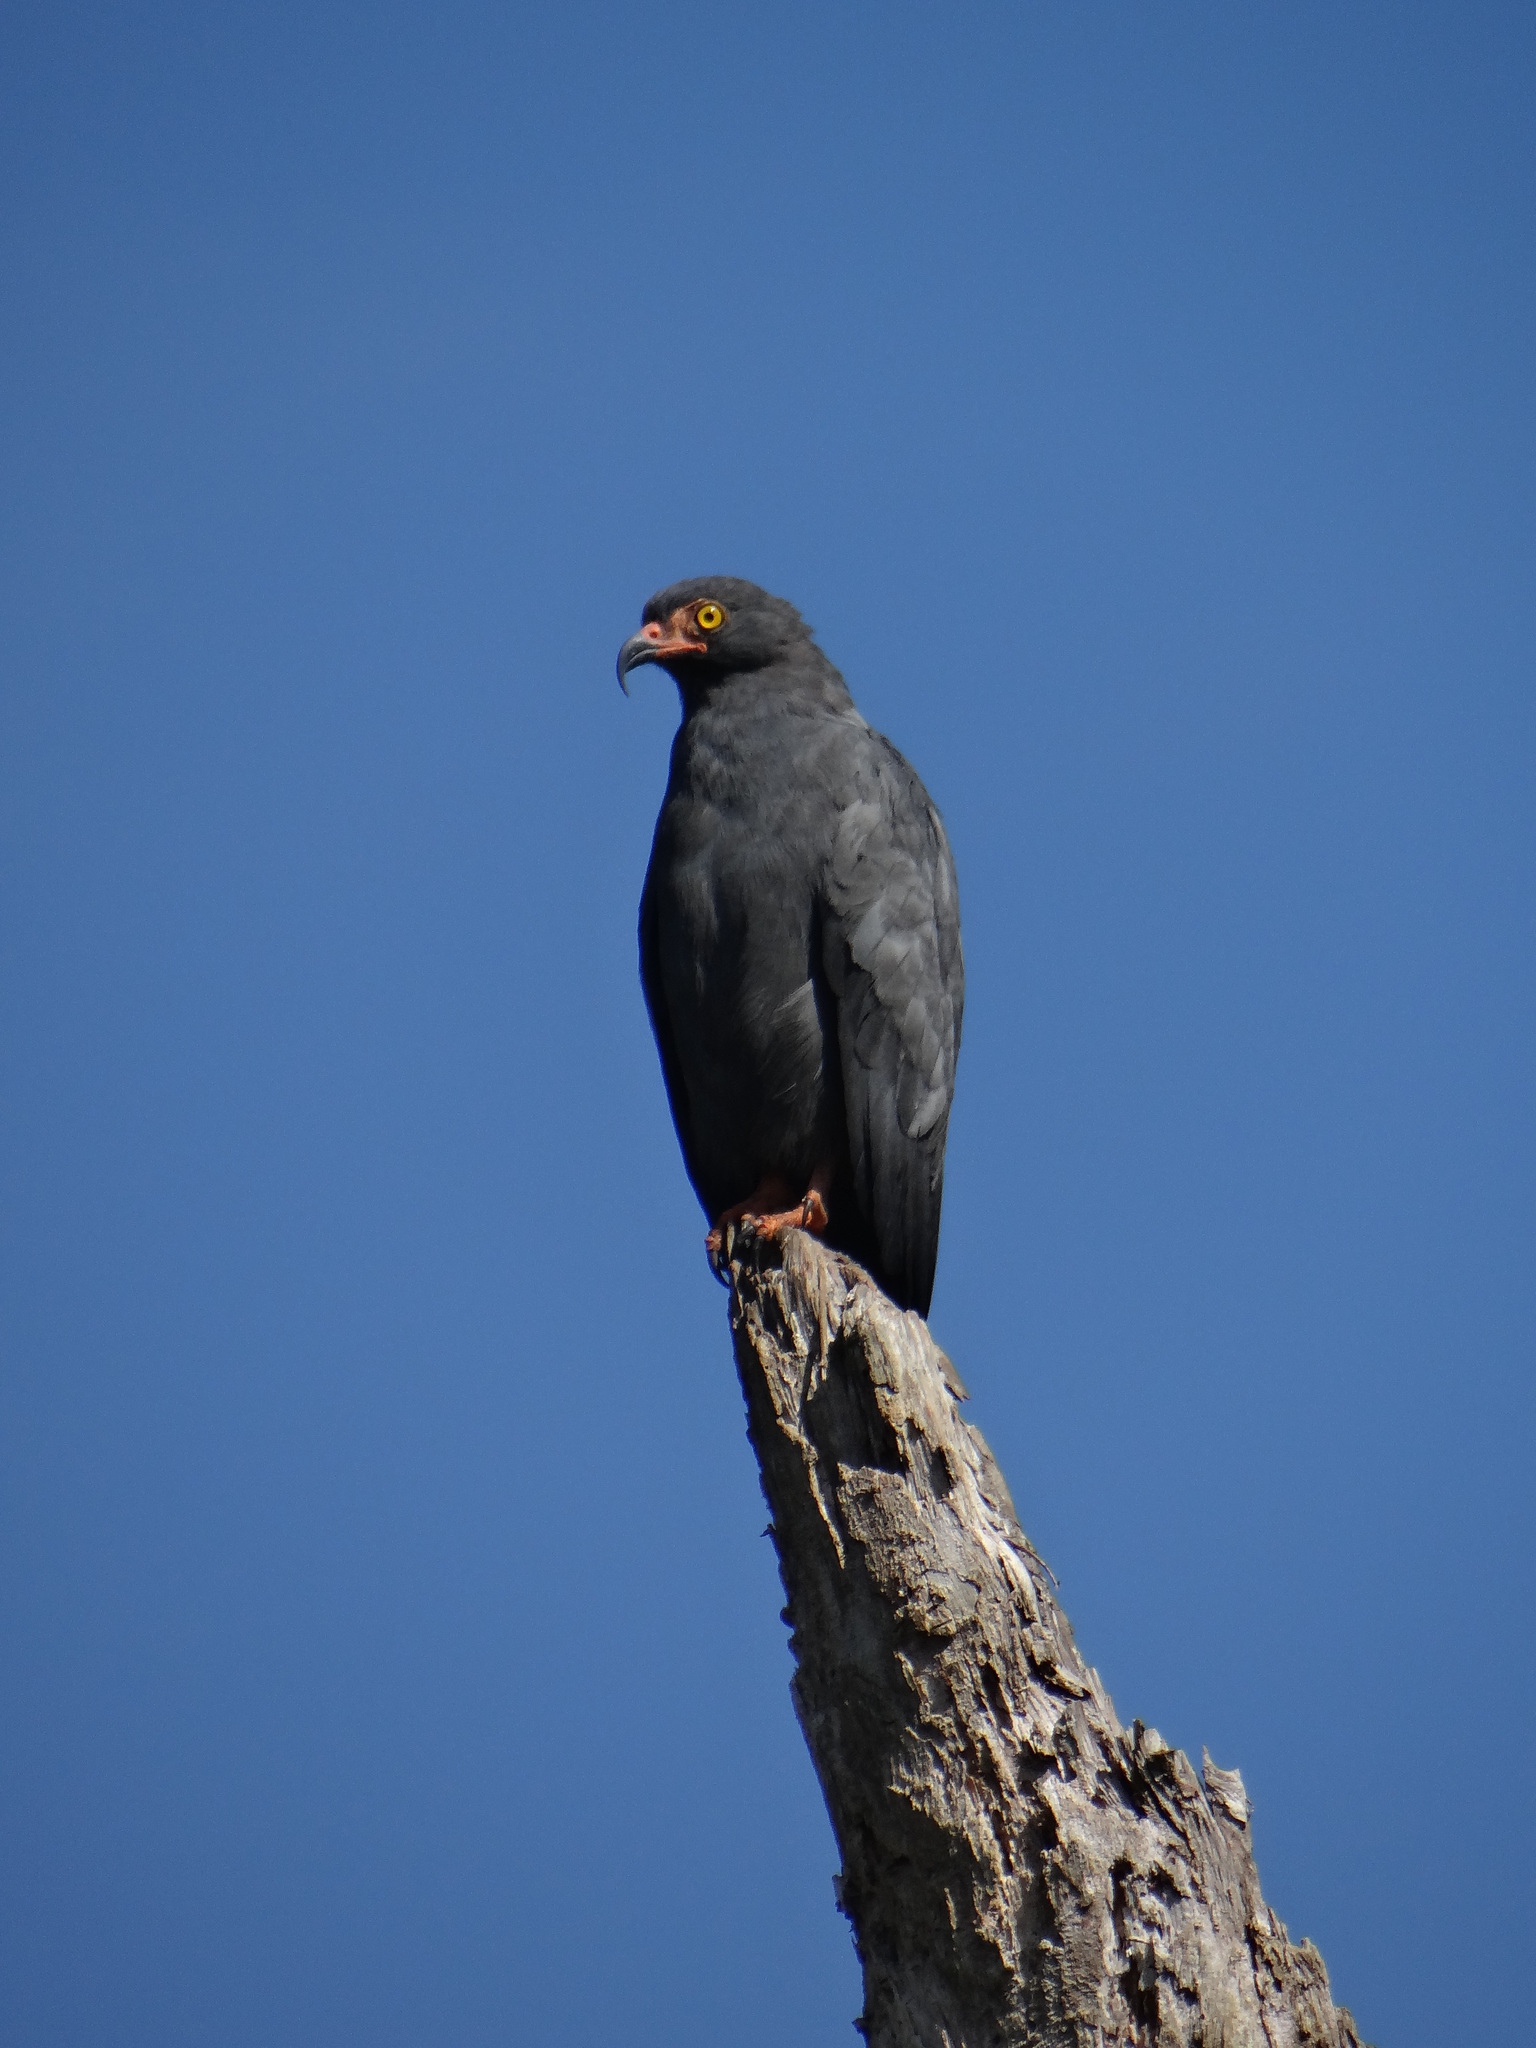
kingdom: Animalia
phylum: Chordata
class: Aves
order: Accipitriformes
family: Accipitridae
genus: Helicolestes
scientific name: Helicolestes hamatus
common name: Slender-billed kite
